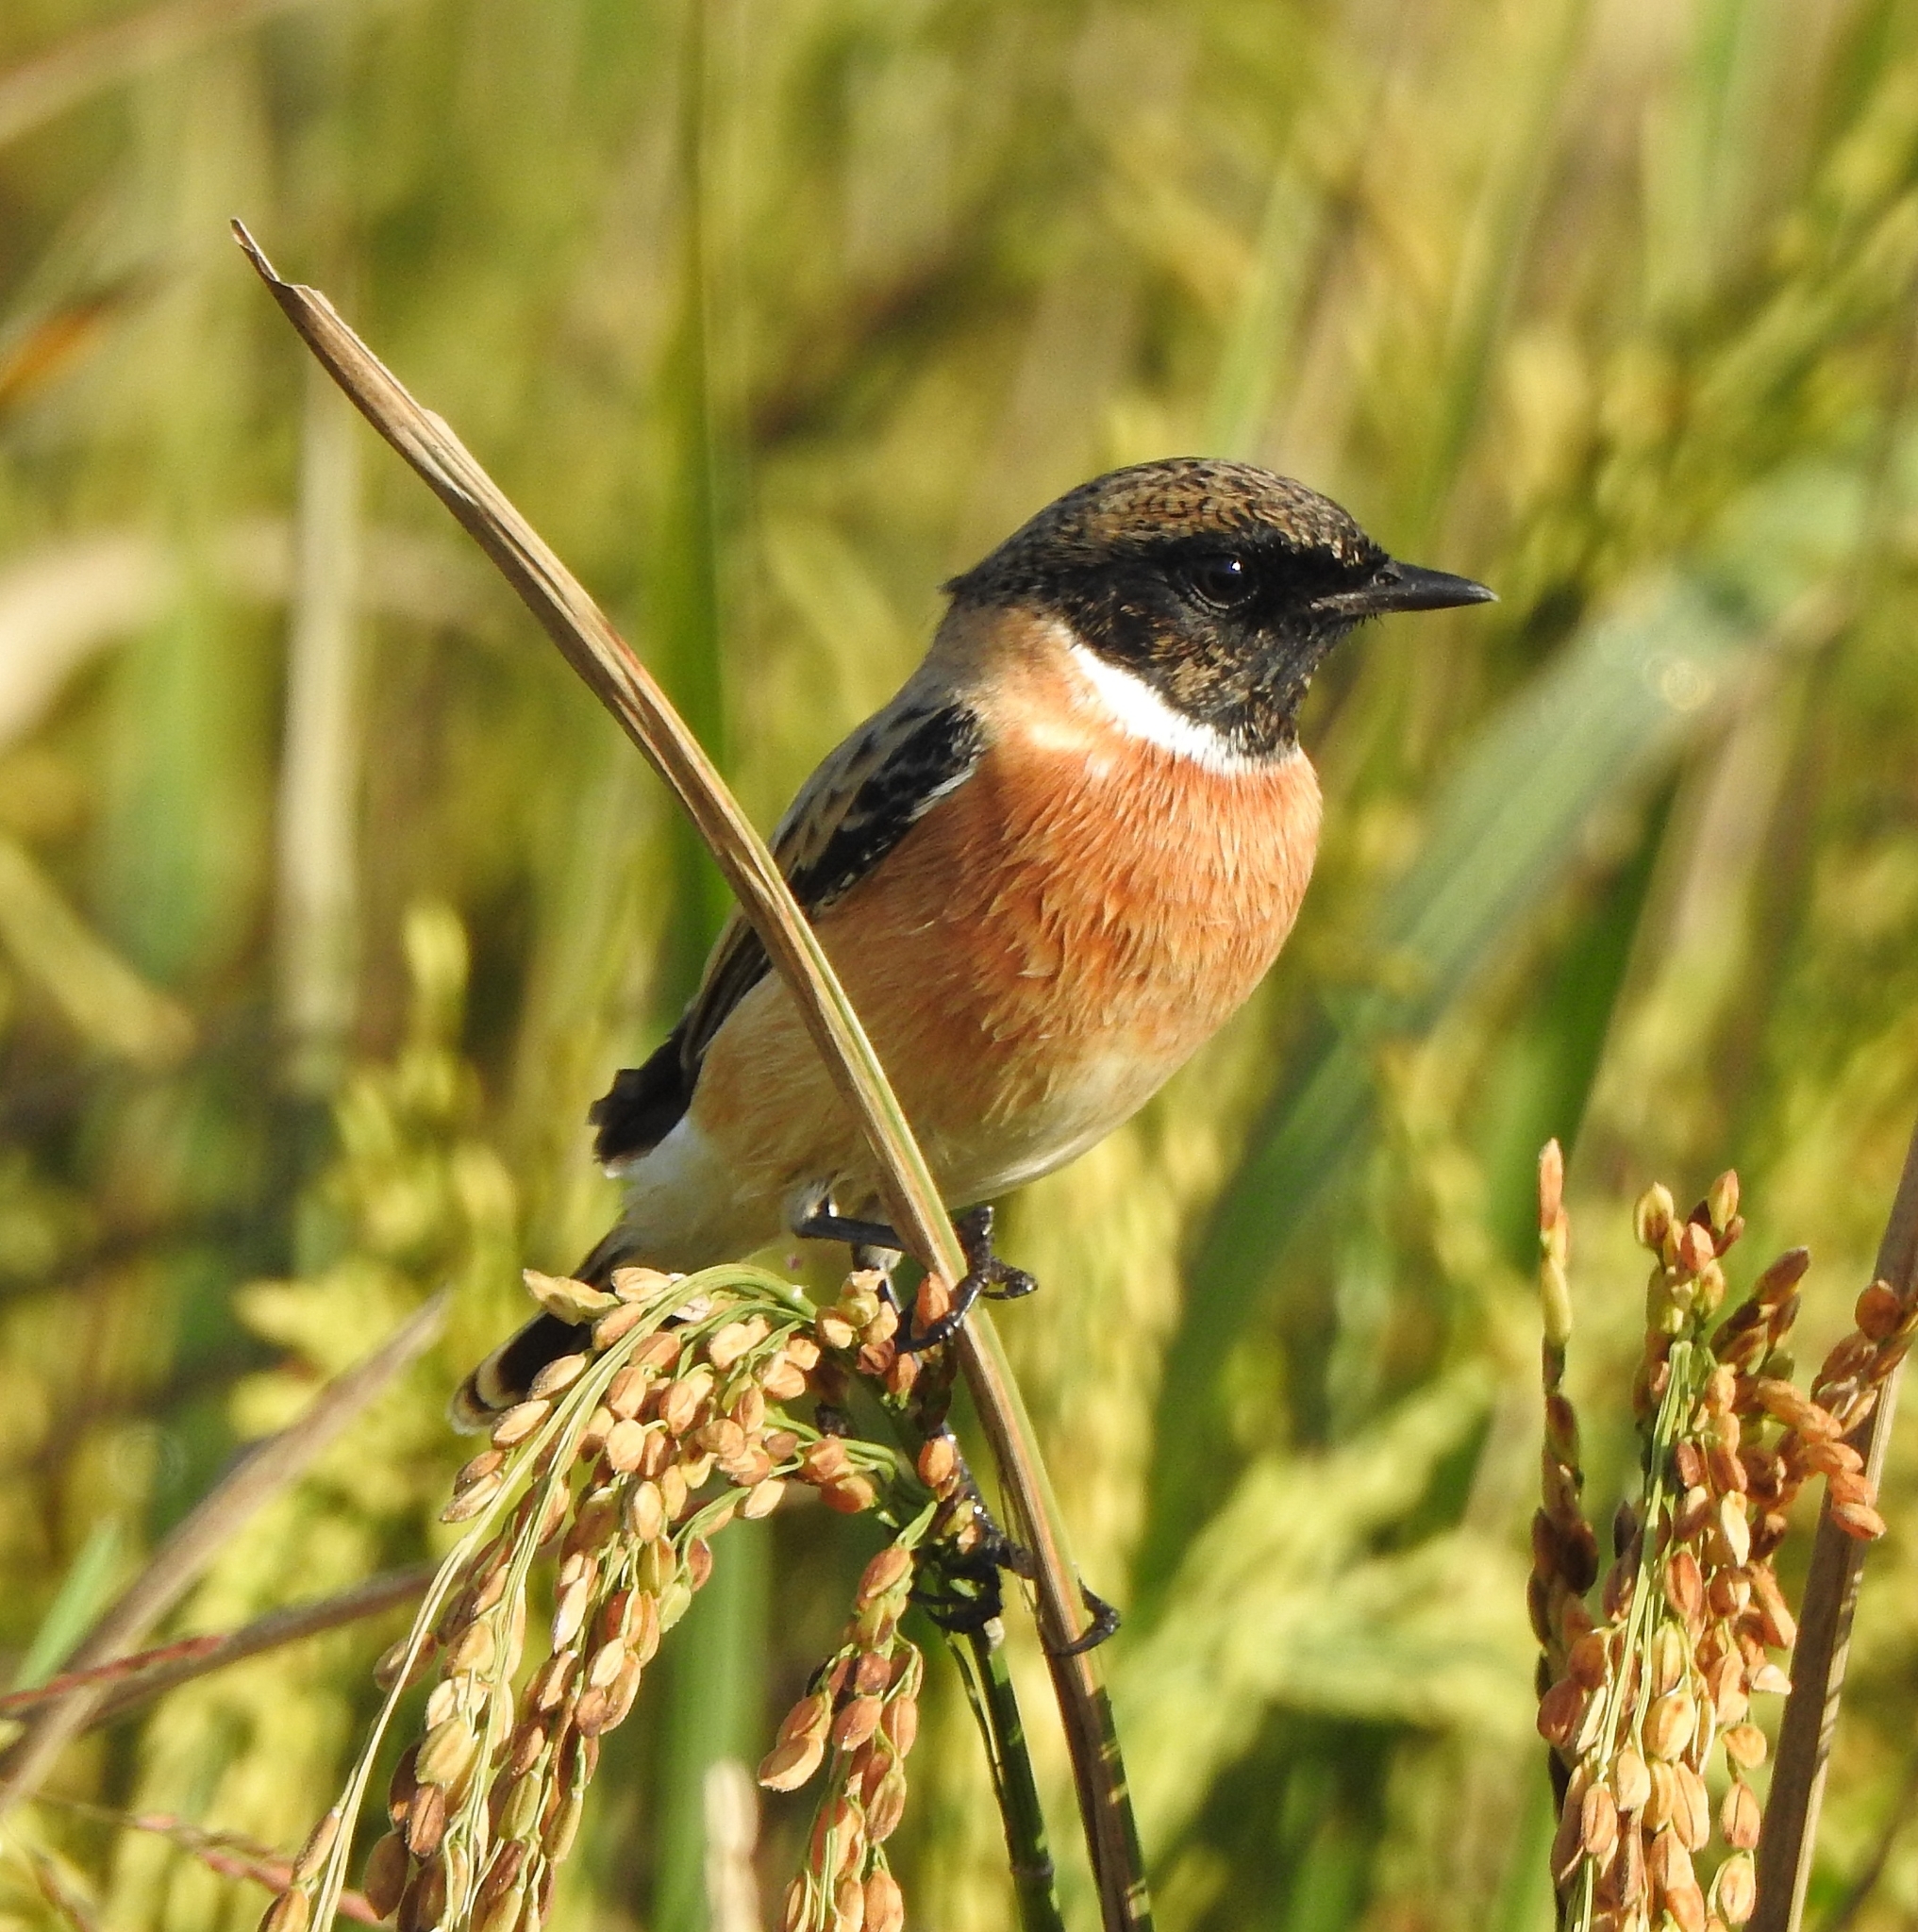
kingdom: Animalia
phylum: Chordata
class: Aves
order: Passeriformes
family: Muscicapidae
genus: Saxicola
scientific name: Saxicola maurus
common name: Siberian stonechat
